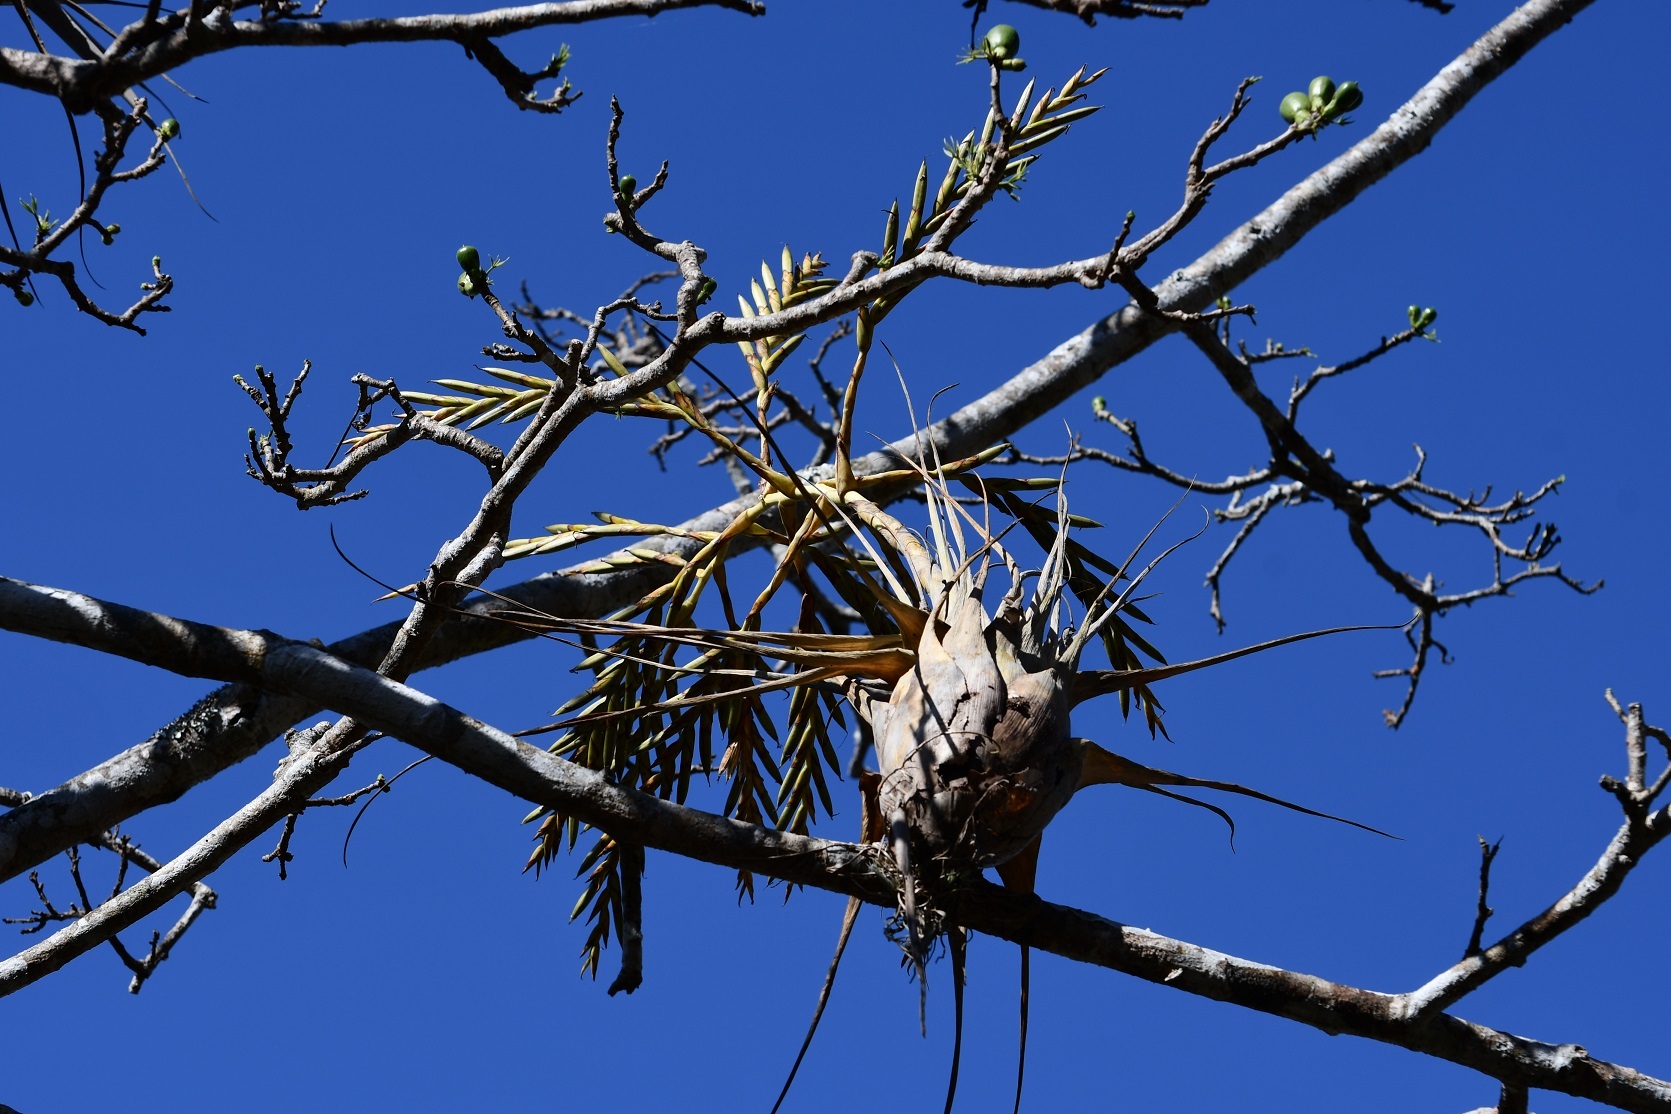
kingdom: Plantae
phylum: Tracheophyta
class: Liliopsida
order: Poales
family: Bromeliaceae
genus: Tillandsia
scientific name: Tillandsia elusiva
